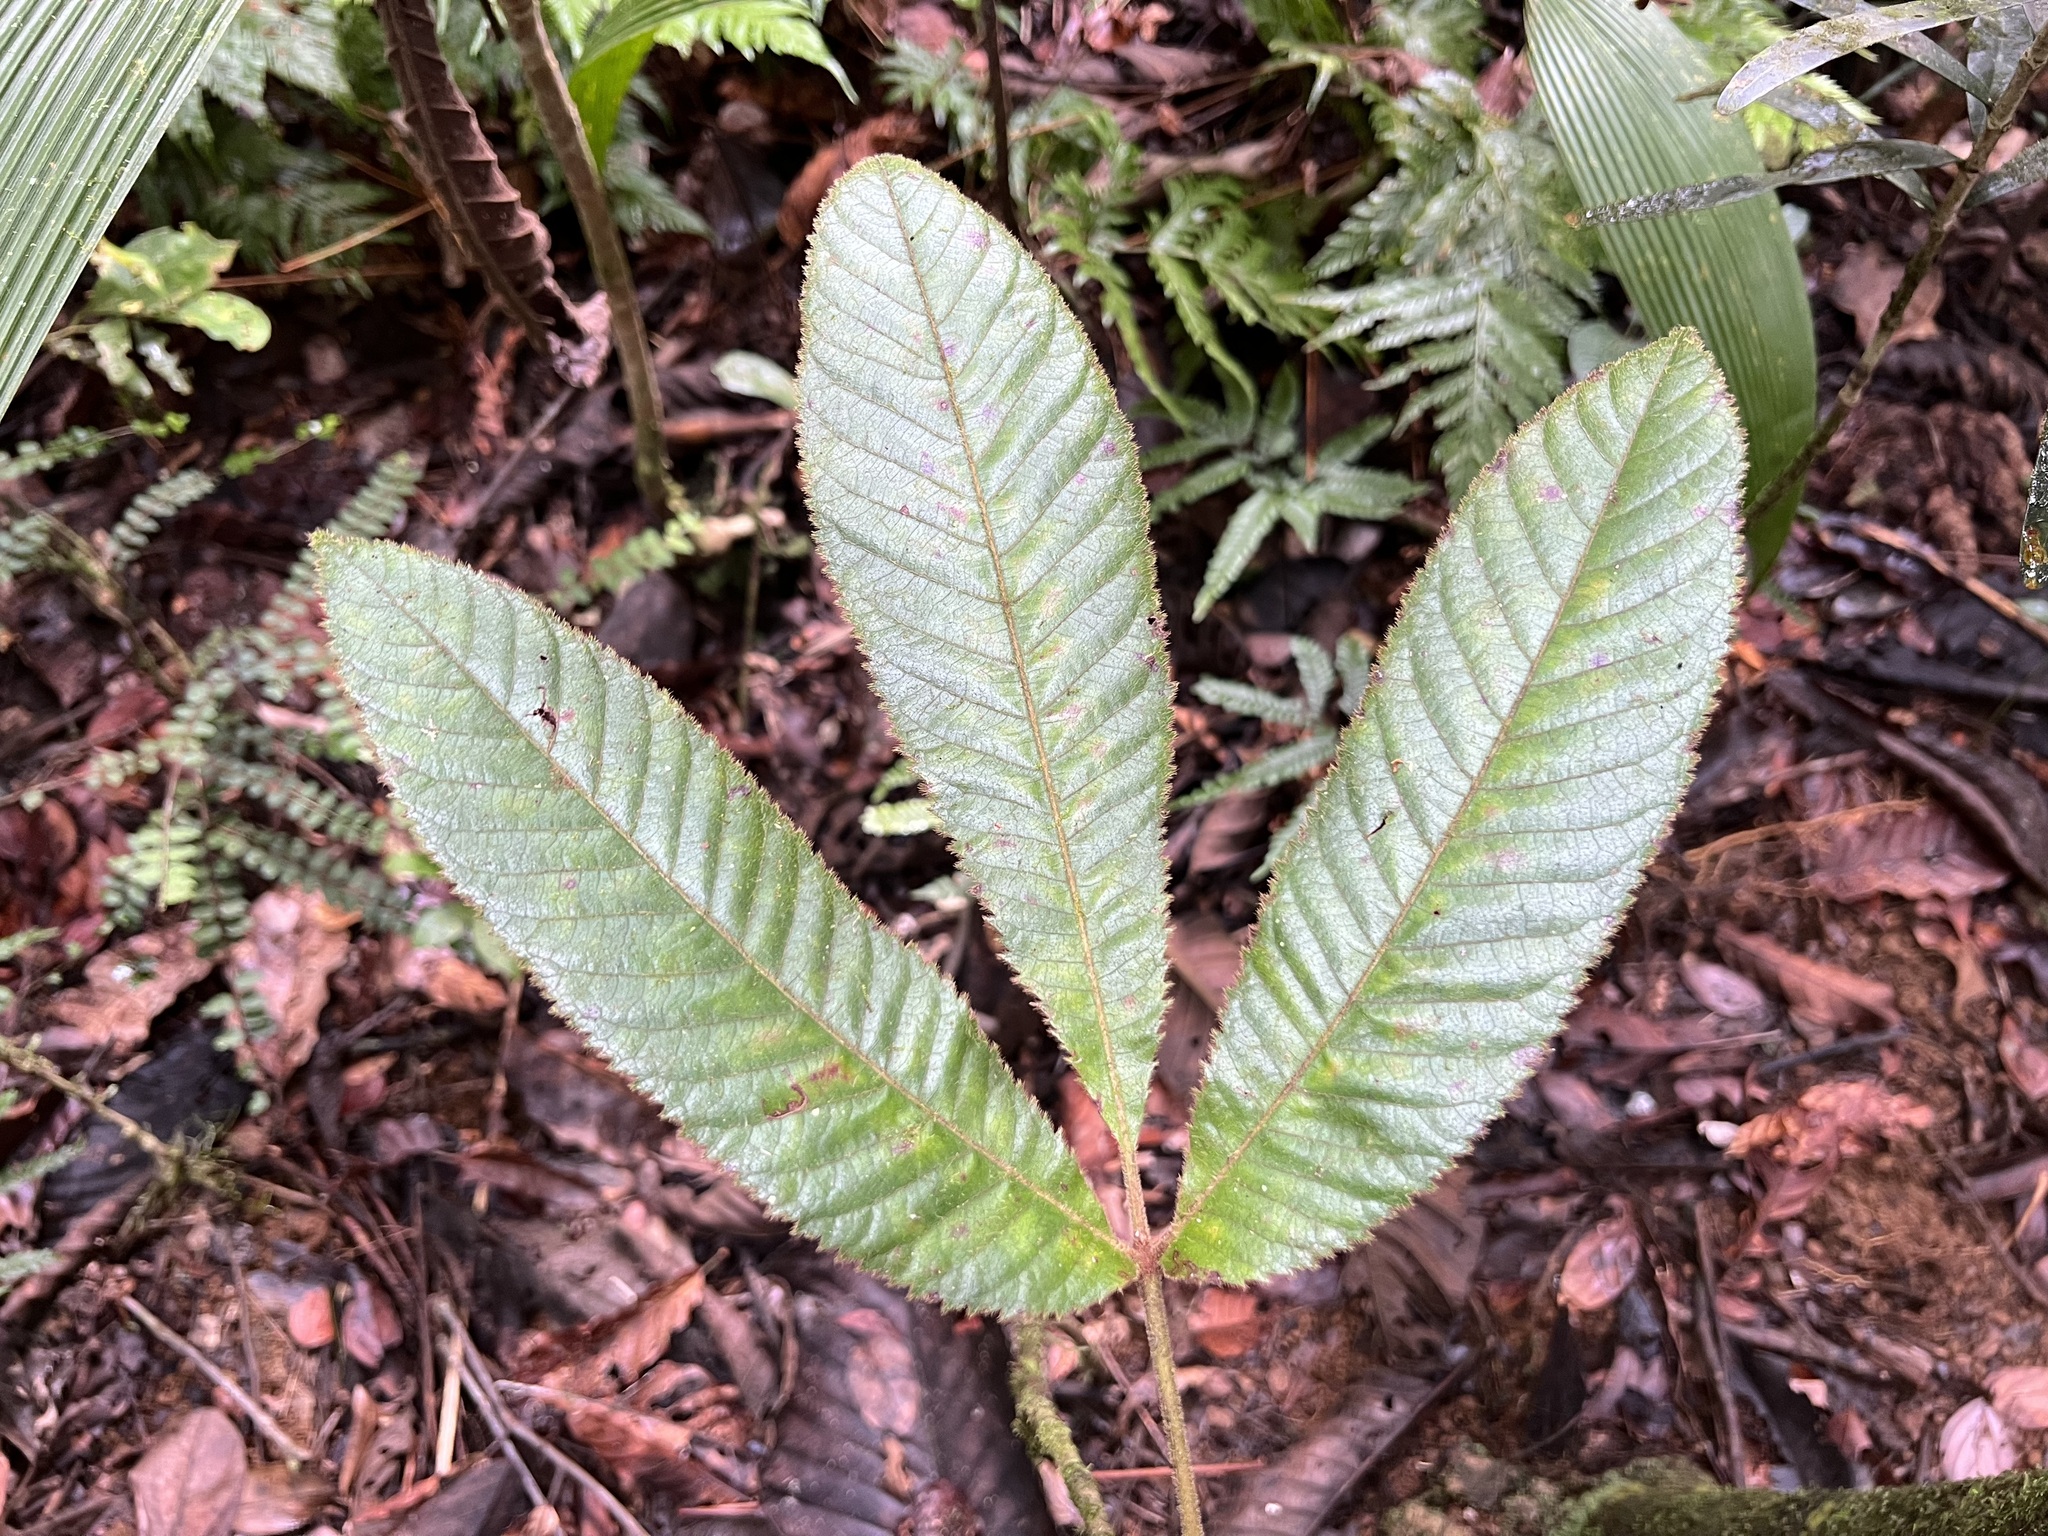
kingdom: Plantae
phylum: Tracheophyta
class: Magnoliopsida
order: Oxalidales
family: Cunoniaceae
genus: Geissois
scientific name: Geissois hirsuta
